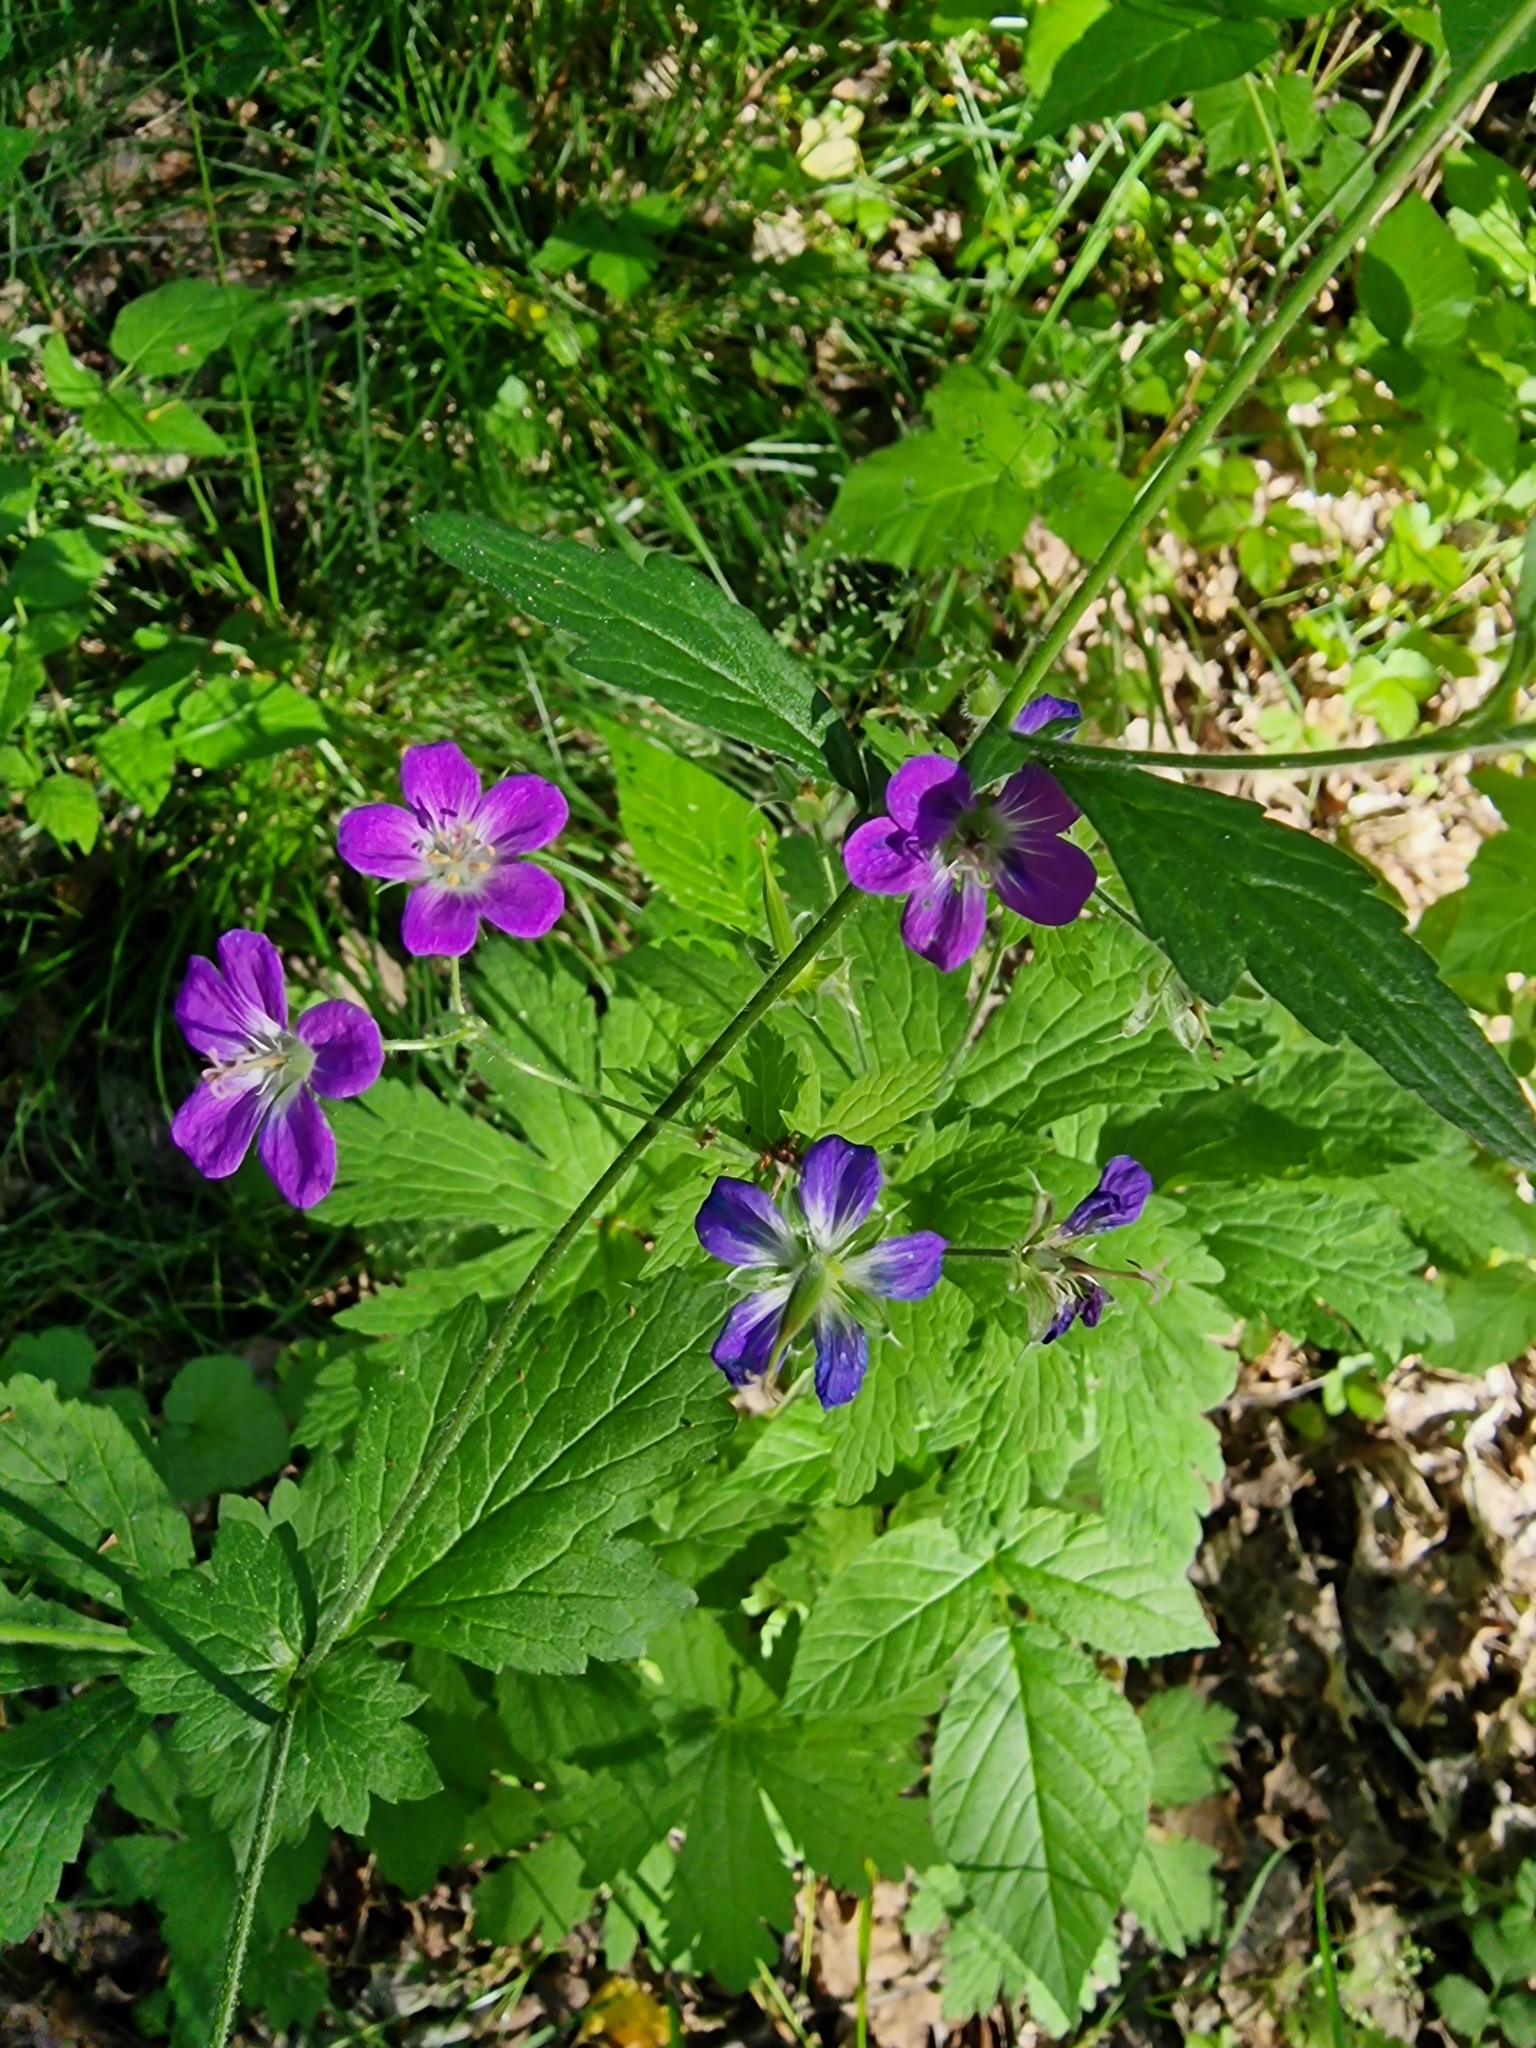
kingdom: Plantae
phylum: Tracheophyta
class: Magnoliopsida
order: Geraniales
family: Geraniaceae
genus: Geranium
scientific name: Geranium sylvaticum
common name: Wood crane's-bill
